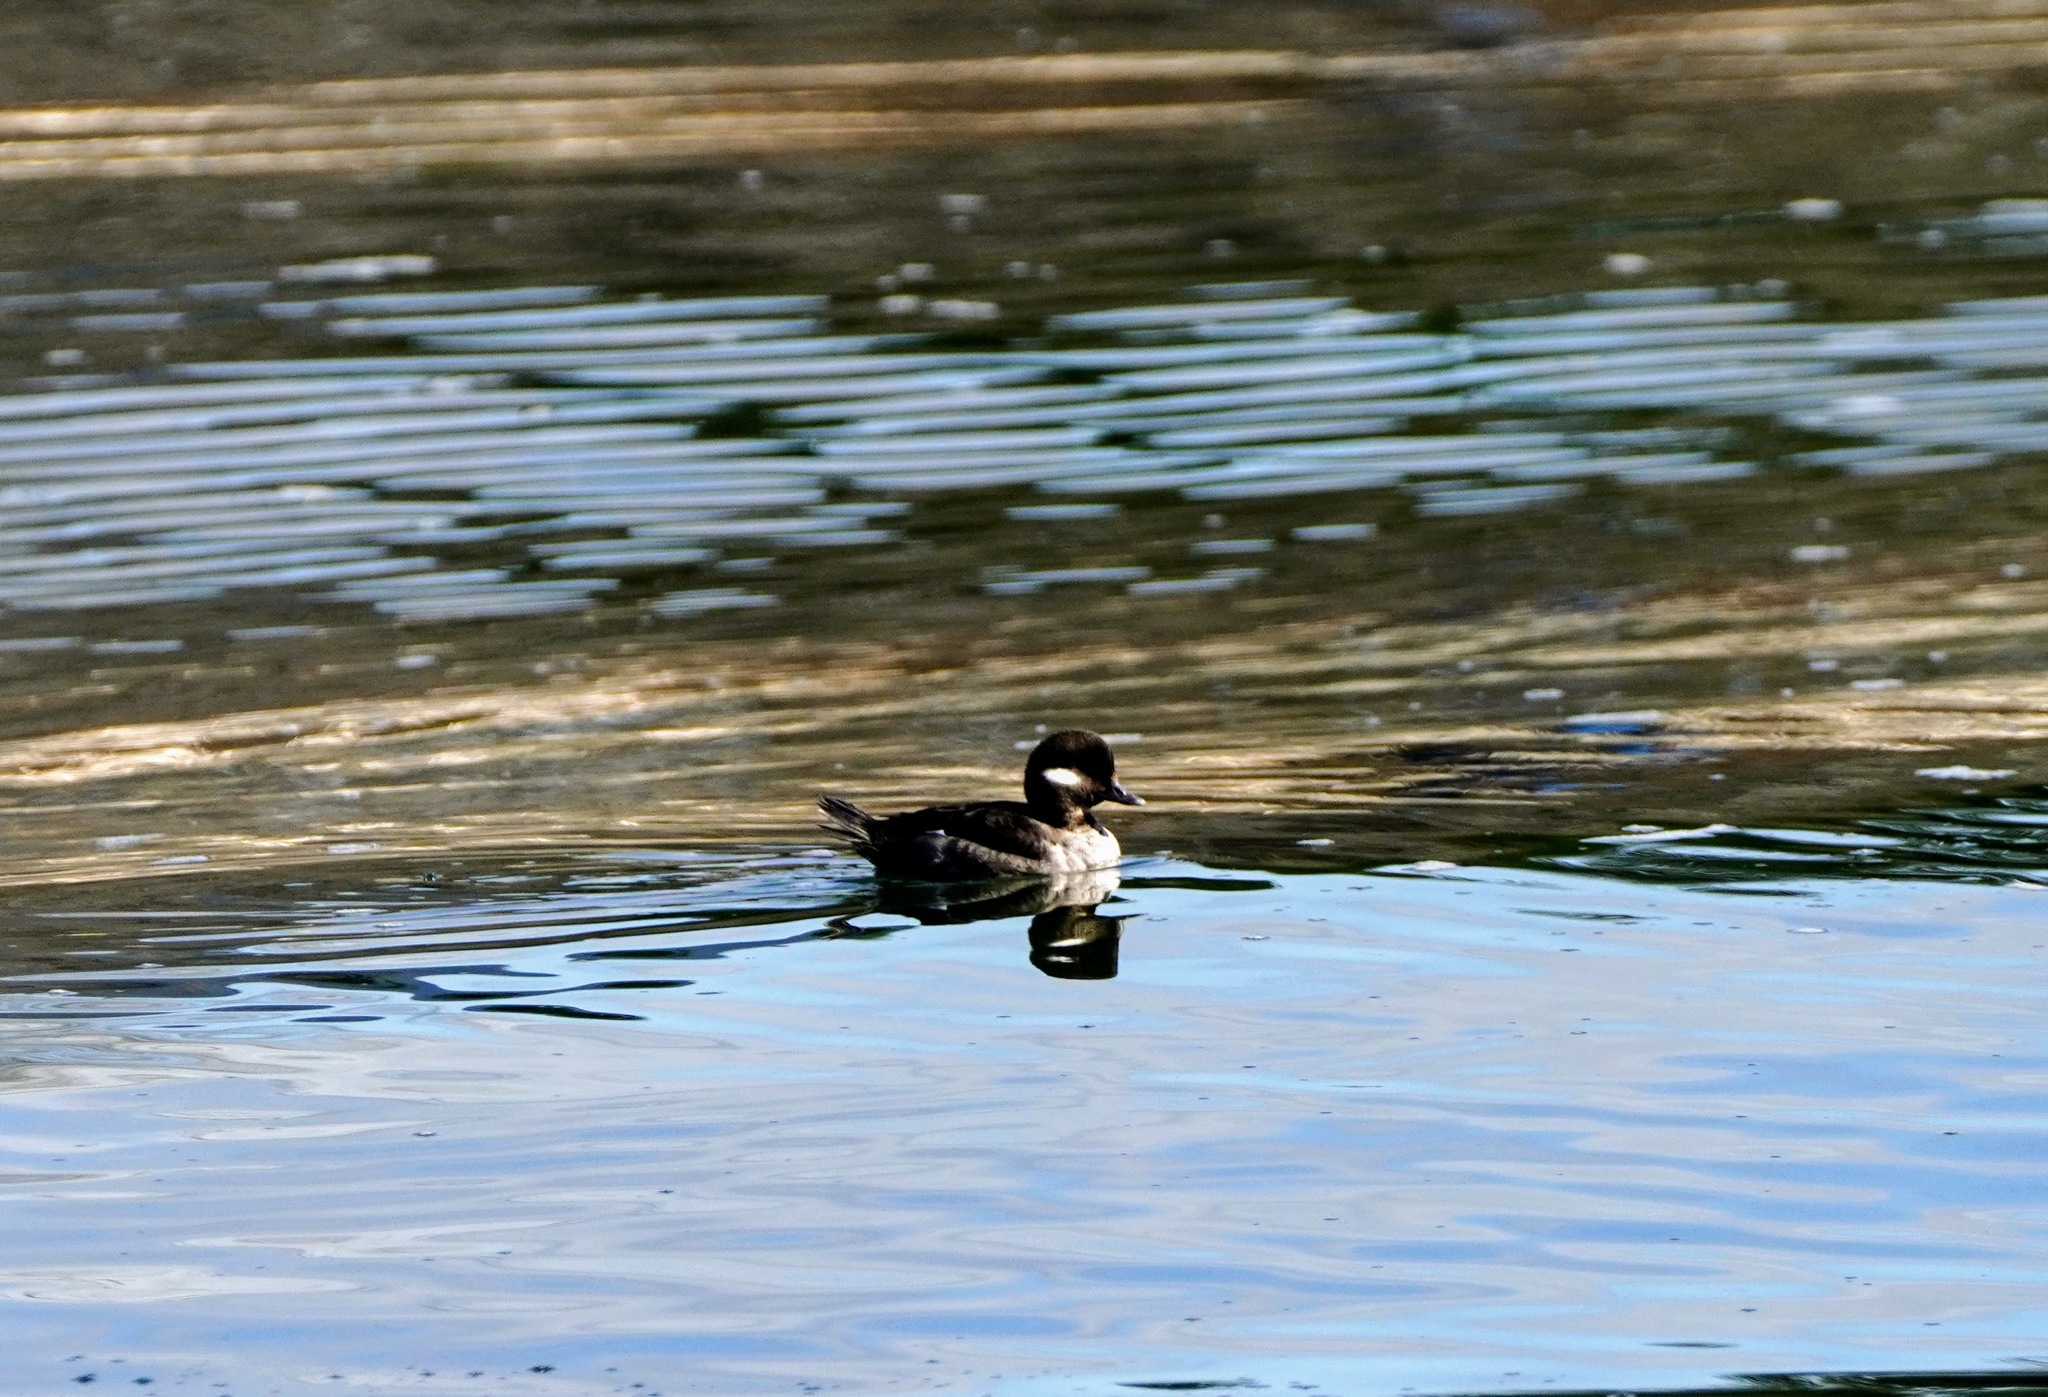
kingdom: Animalia
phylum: Chordata
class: Aves
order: Anseriformes
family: Anatidae
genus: Bucephala
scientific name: Bucephala albeola
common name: Bufflehead
